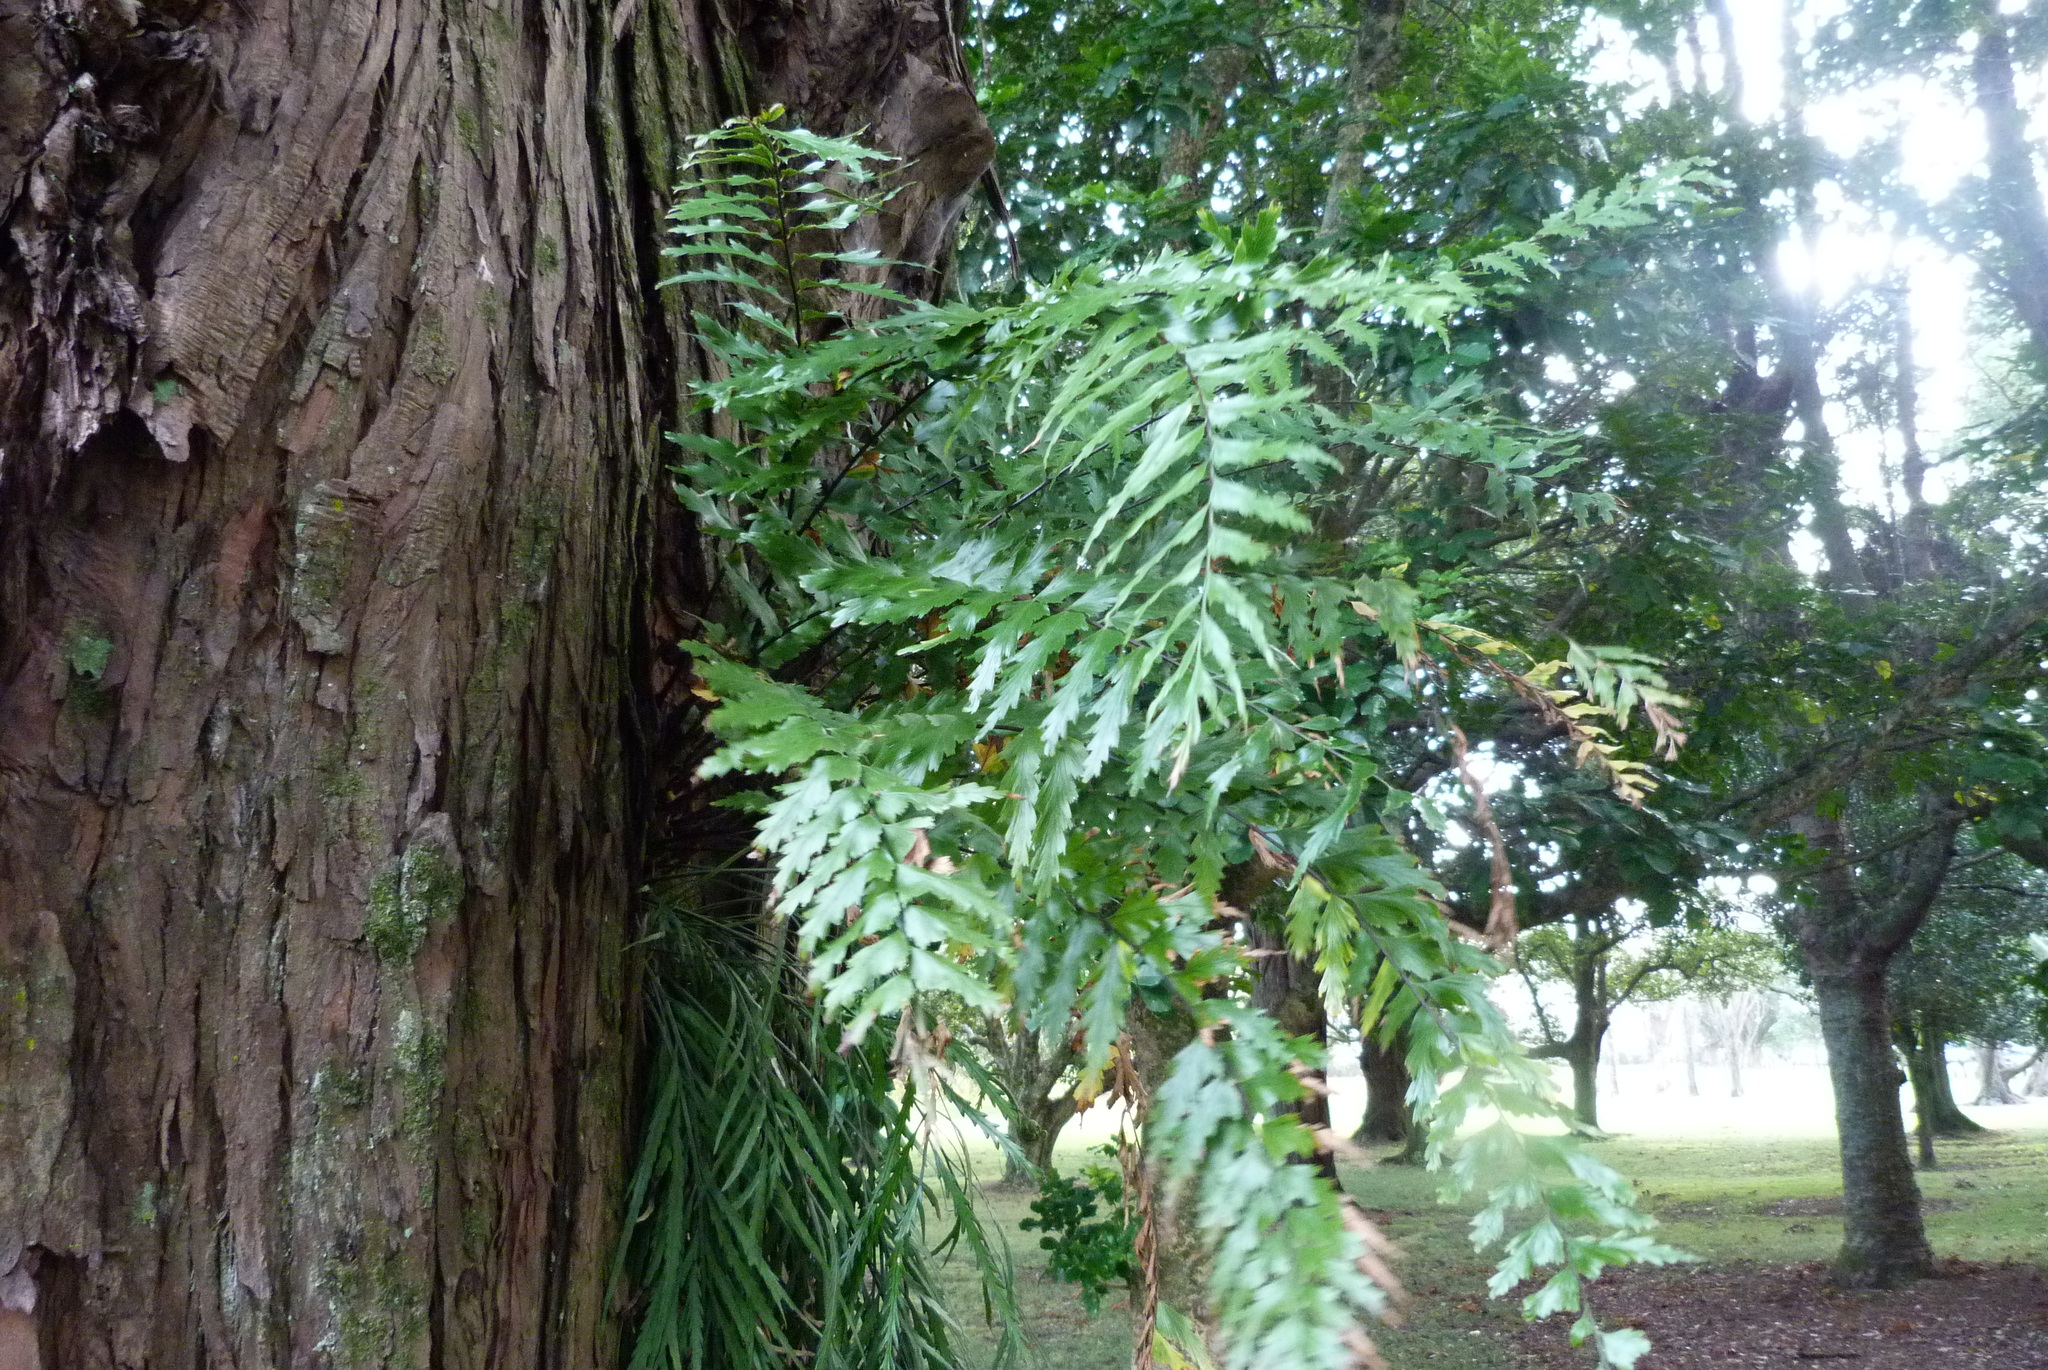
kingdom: Plantae
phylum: Tracheophyta
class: Polypodiopsida
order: Polypodiales
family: Aspleniaceae
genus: Asplenium
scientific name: Asplenium polyodon
